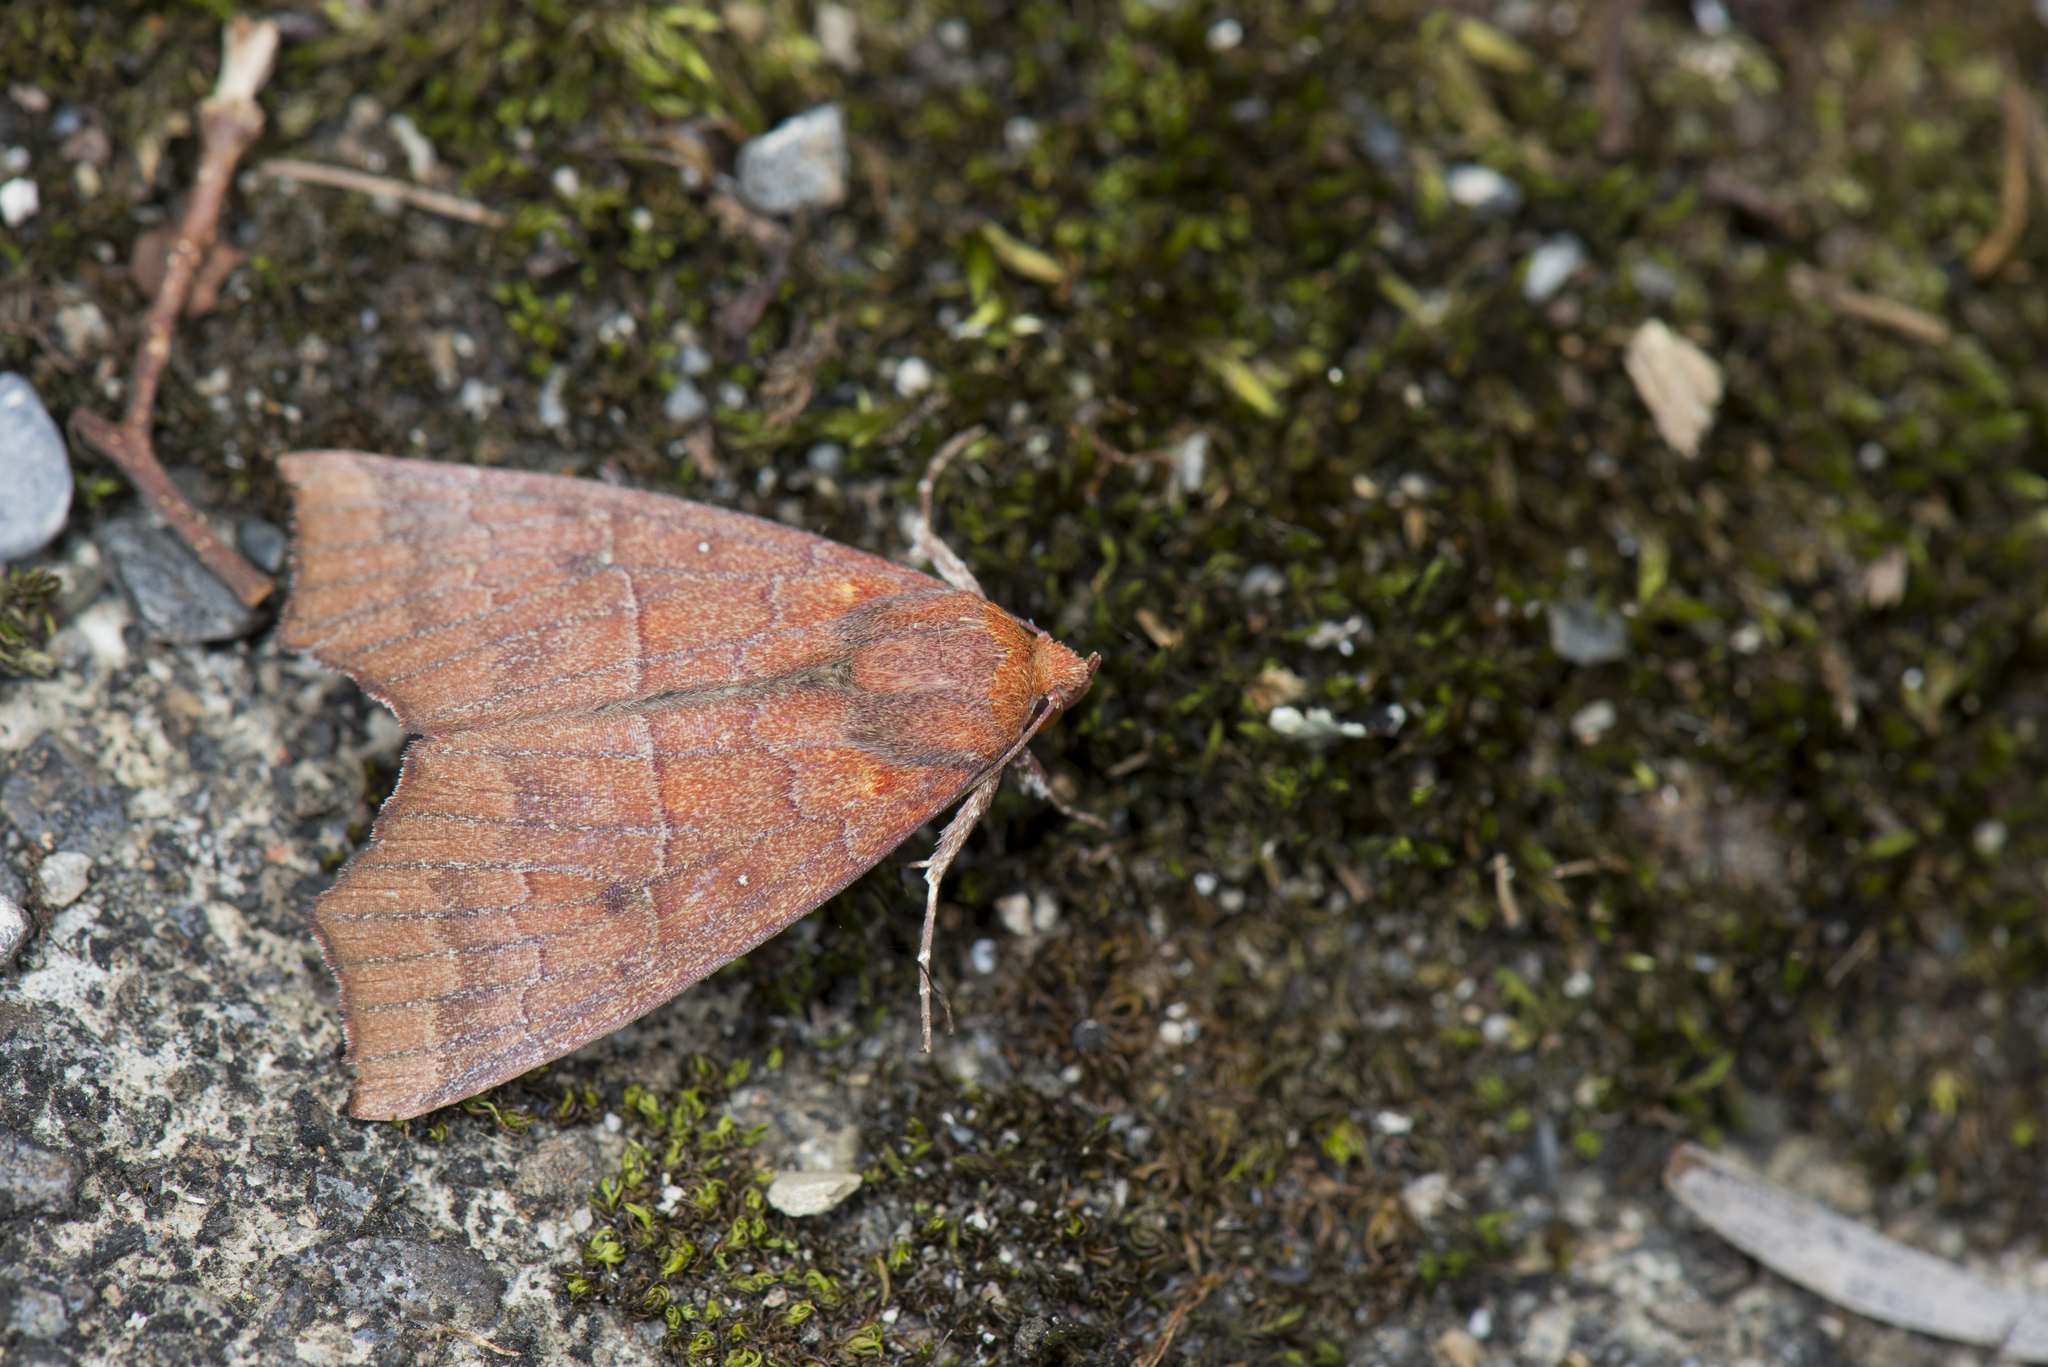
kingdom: Animalia
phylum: Arthropoda
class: Insecta
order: Lepidoptera
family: Erebidae
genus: Rusicada
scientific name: Rusicada privata
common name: Hibiscus leaf caterpillar moth
